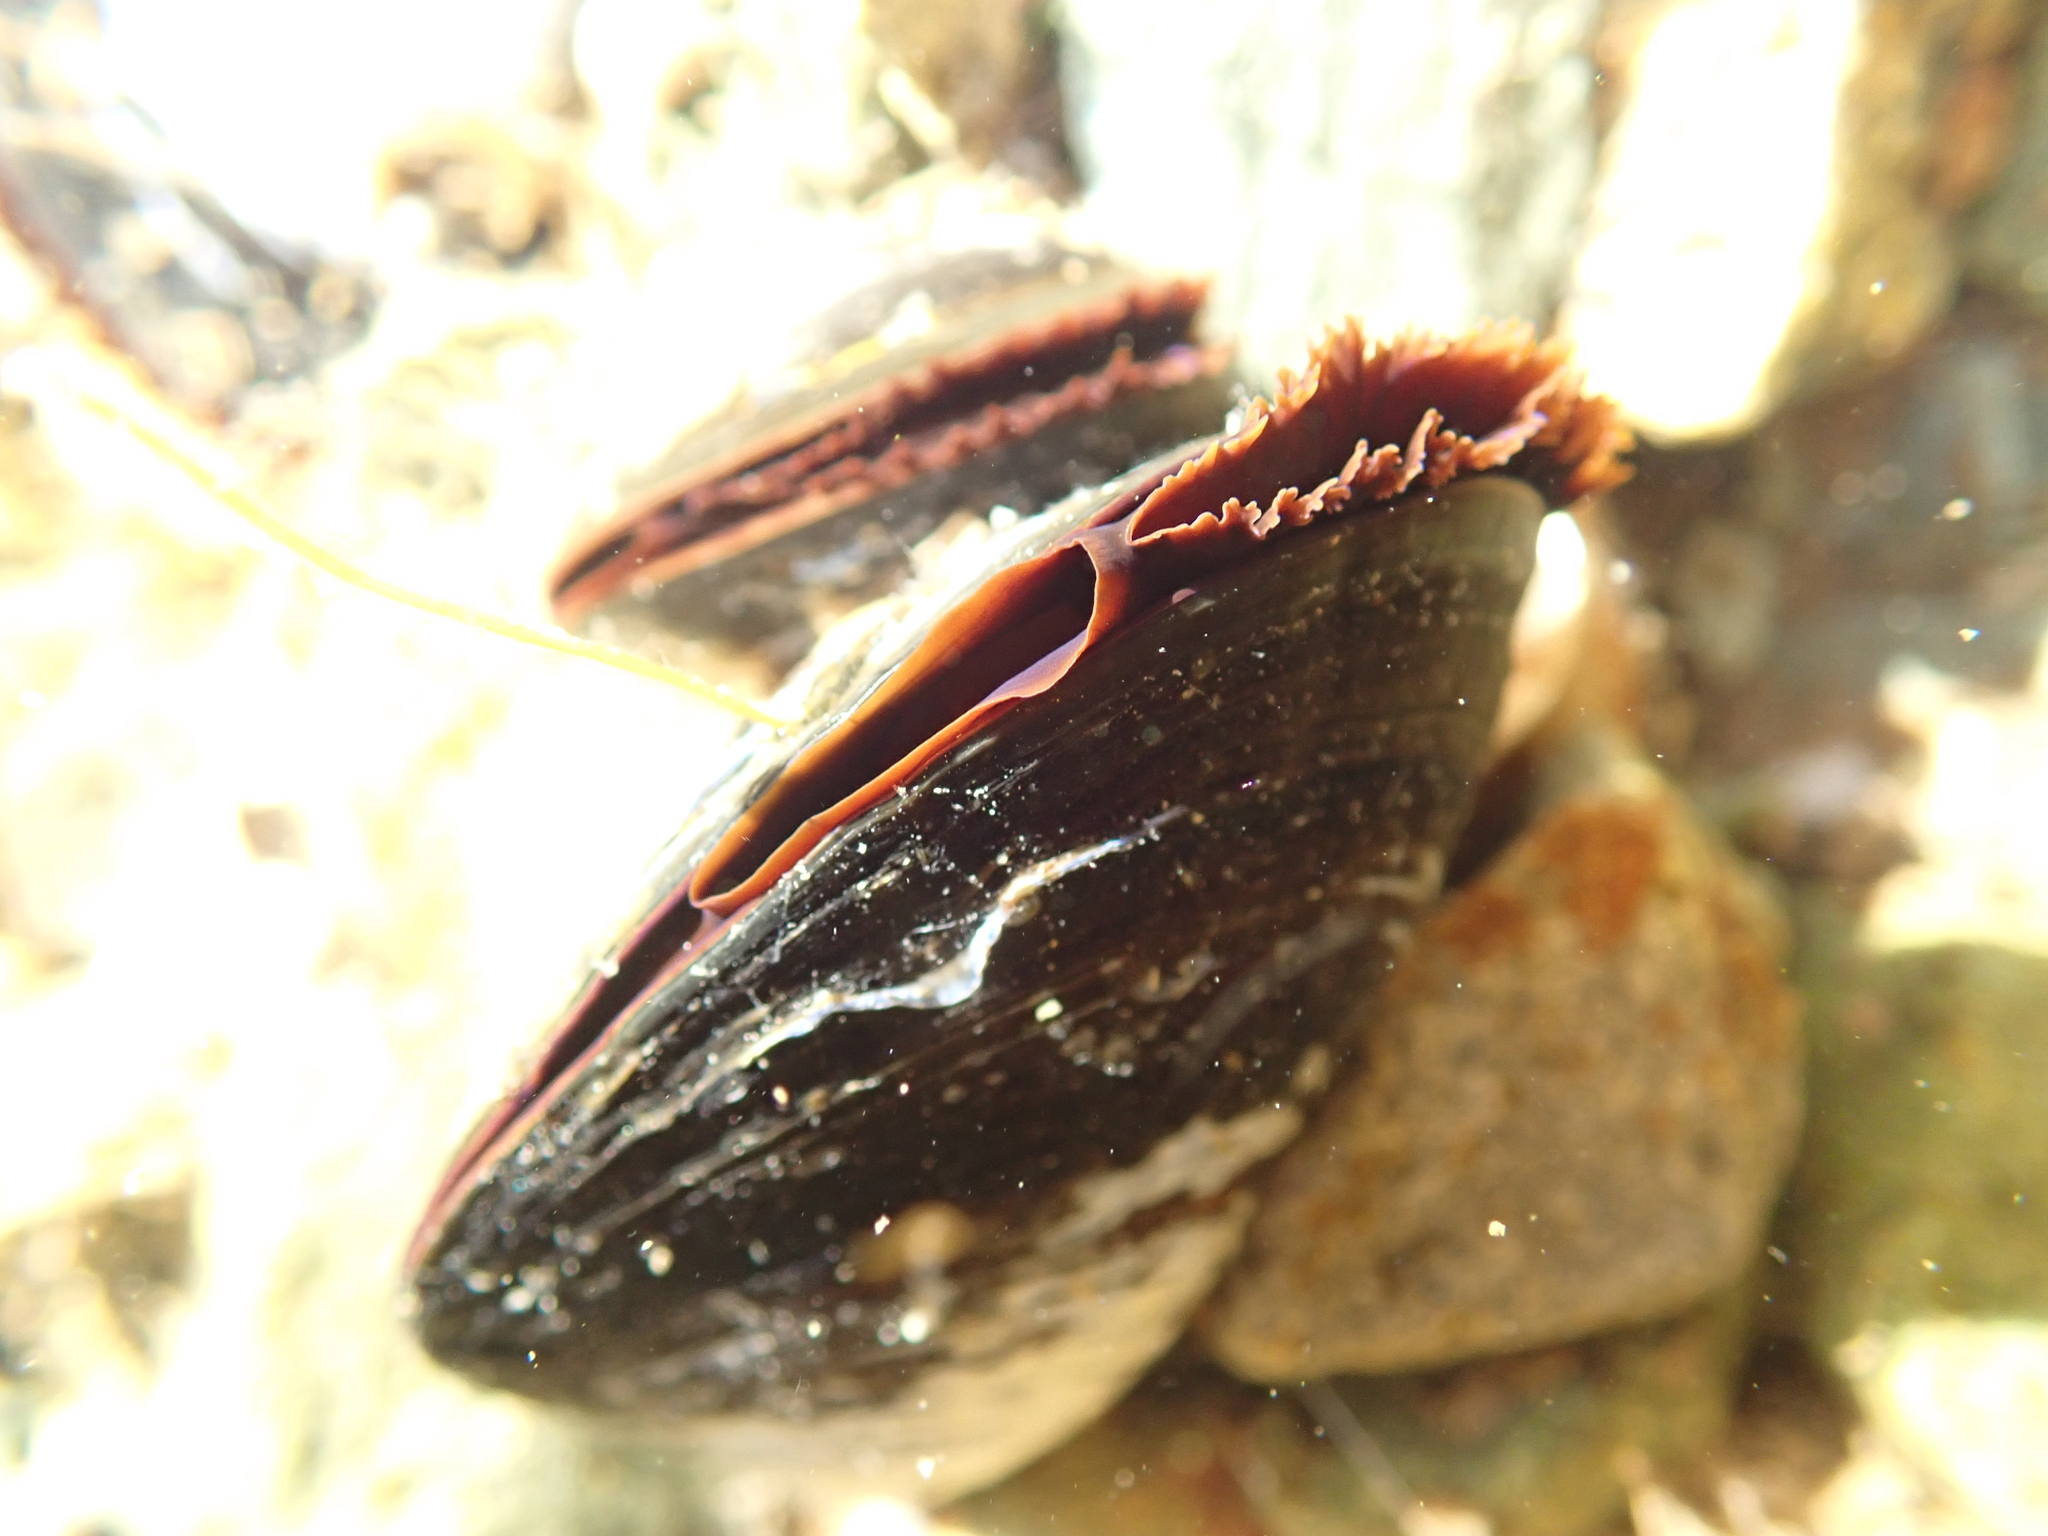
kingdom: Animalia
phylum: Mollusca
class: Bivalvia
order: Mytilida
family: Mytilidae
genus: Mytilus
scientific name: Mytilus edulis
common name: Blue mussel
